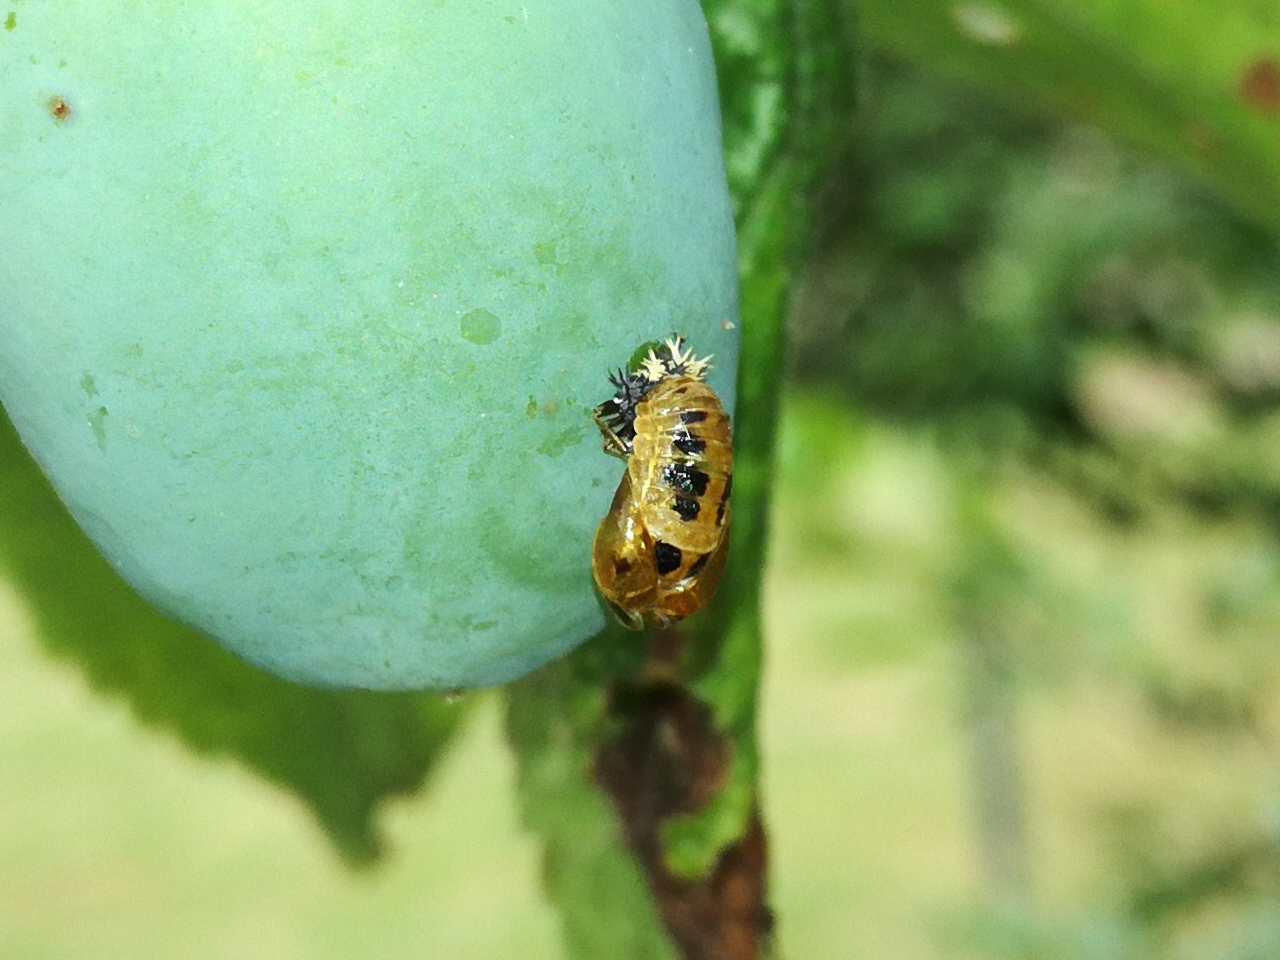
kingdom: Animalia
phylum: Arthropoda
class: Insecta
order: Coleoptera
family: Coccinellidae
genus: Harmonia
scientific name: Harmonia axyridis
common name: Harlequin ladybird
